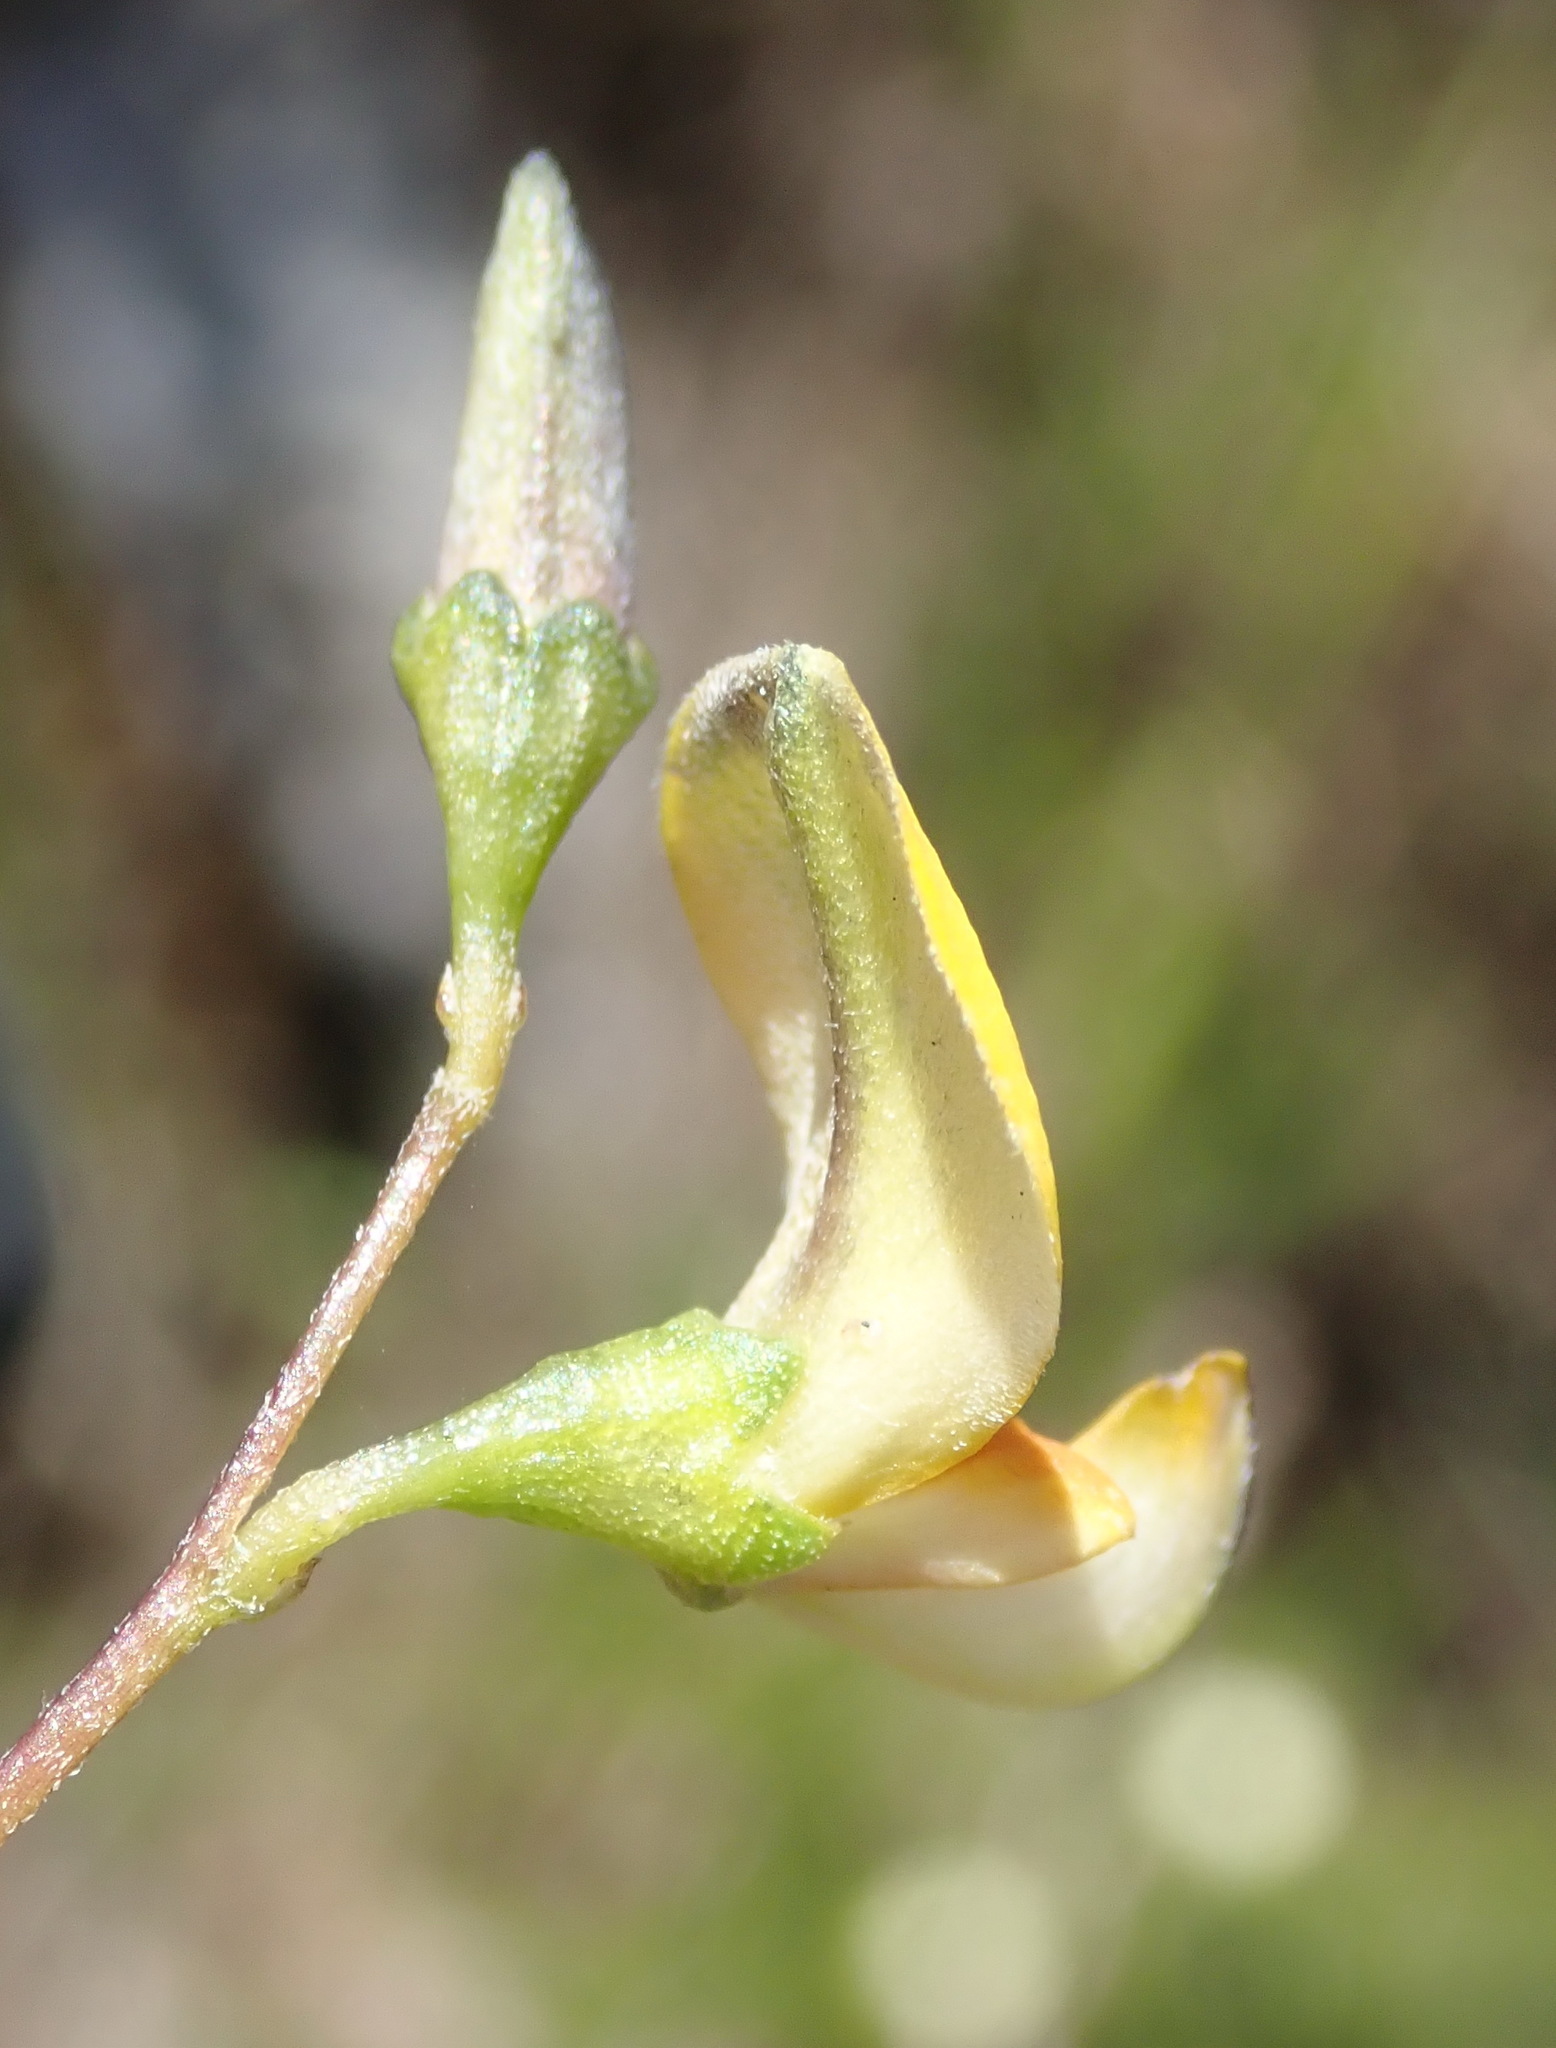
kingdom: Plantae
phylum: Tracheophyta
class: Magnoliopsida
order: Fabales
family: Fabaceae
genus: Aspalathus
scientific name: Aspalathus biflora
